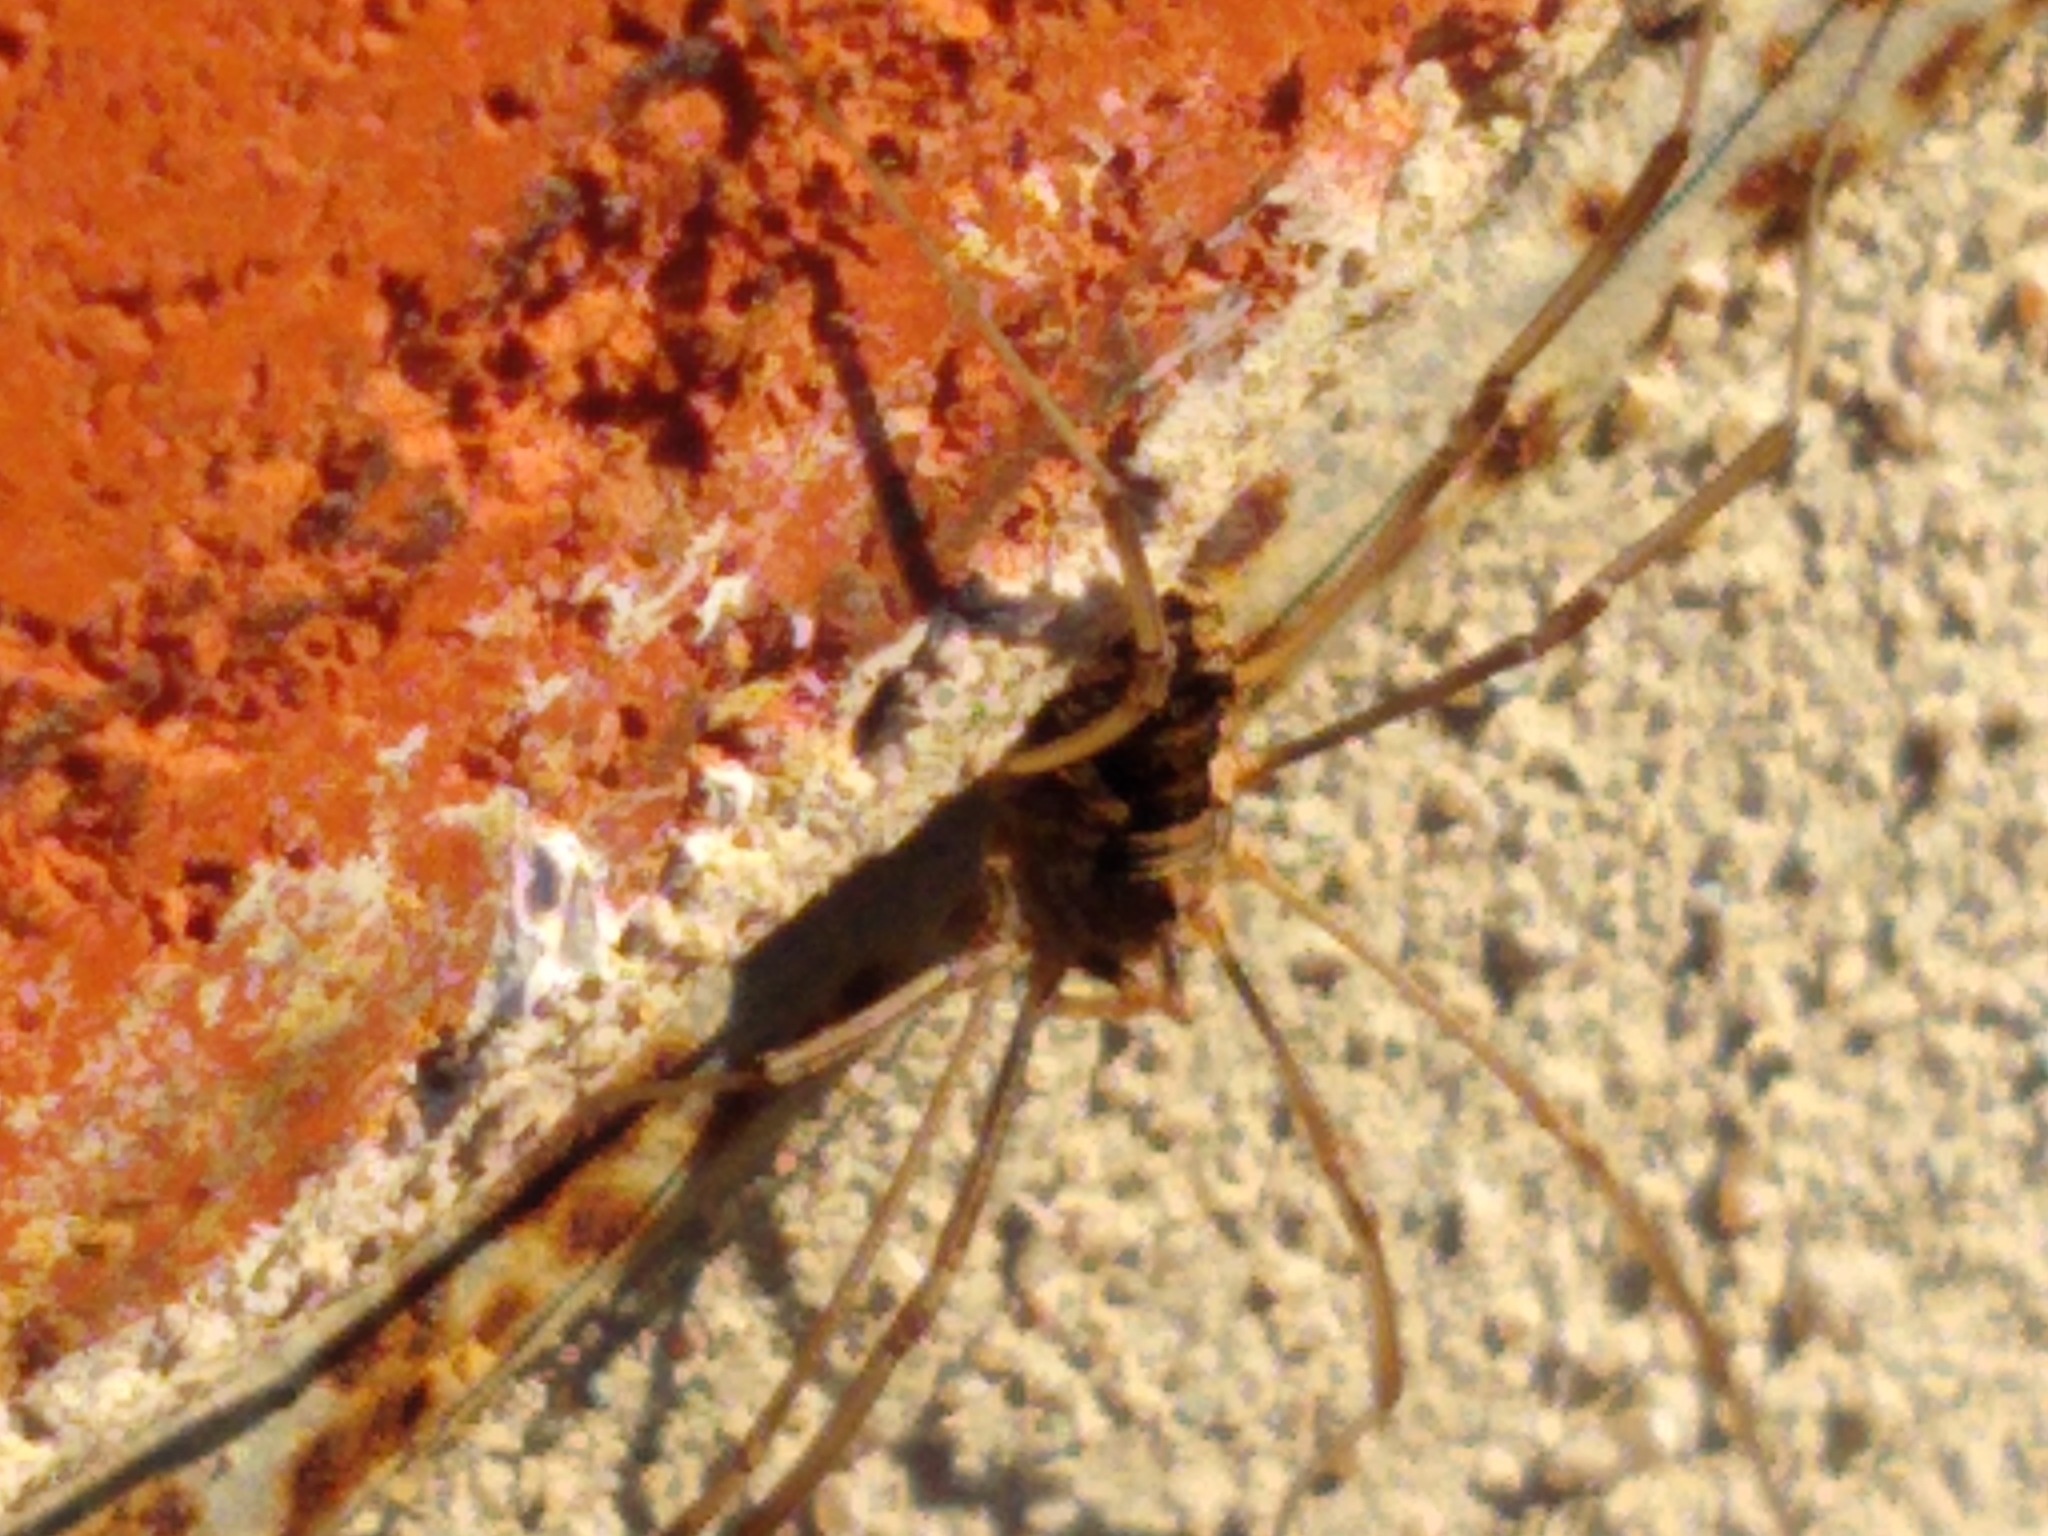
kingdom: Animalia
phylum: Arthropoda
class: Arachnida
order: Opiliones
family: Phalangiidae
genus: Phalangium
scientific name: Phalangium opilio
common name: Daddy longleg
